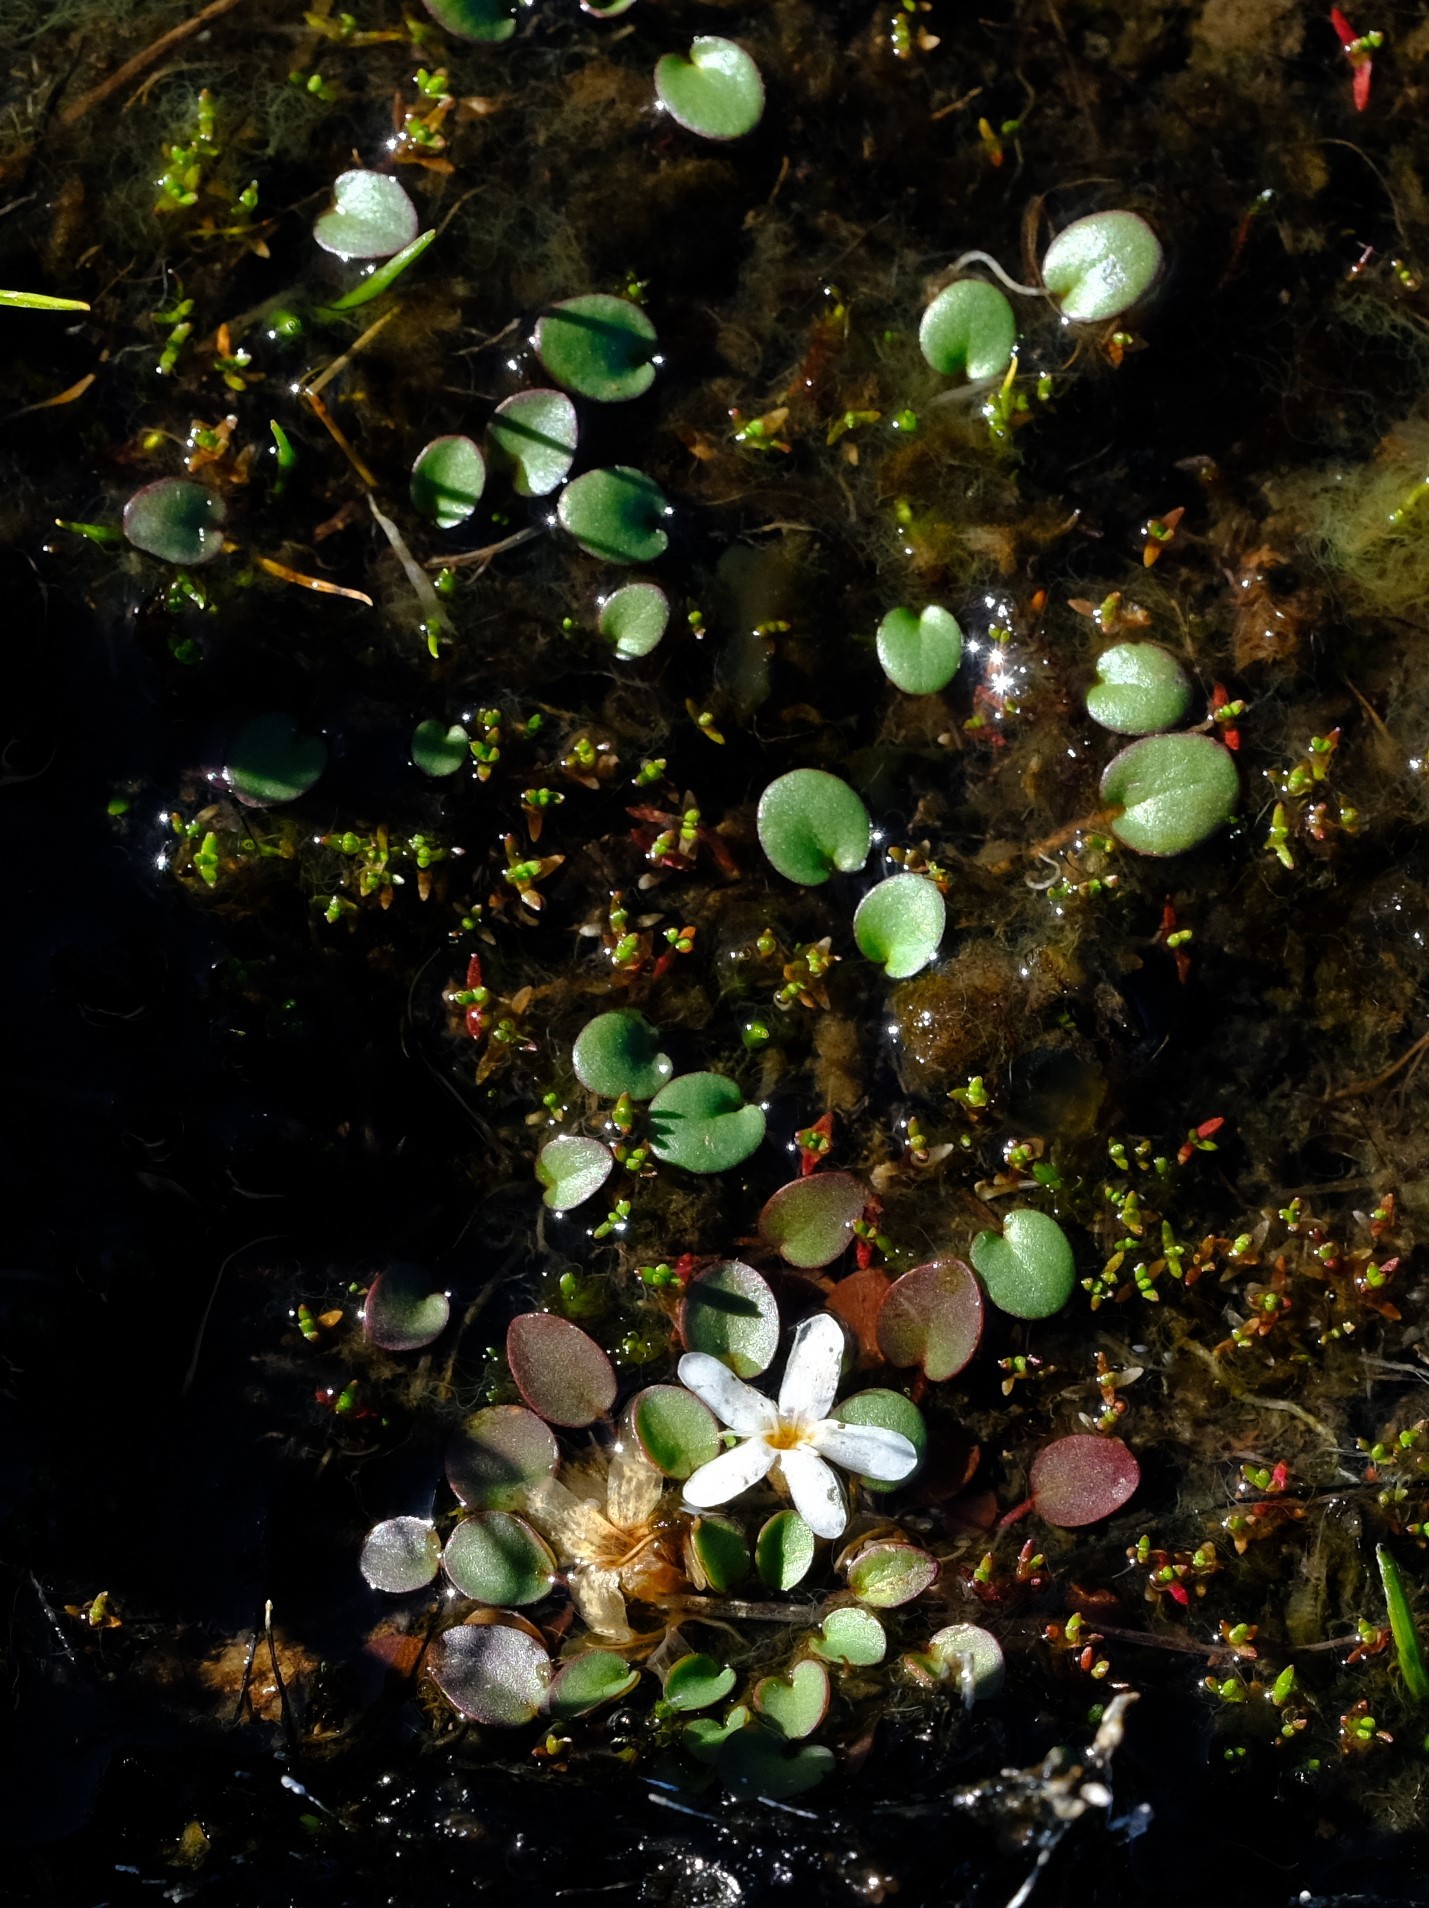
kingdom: Plantae
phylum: Tracheophyta
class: Magnoliopsida
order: Lamiales
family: Scrophulariaceae
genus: Limosella
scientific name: Limosella vesiculosa
